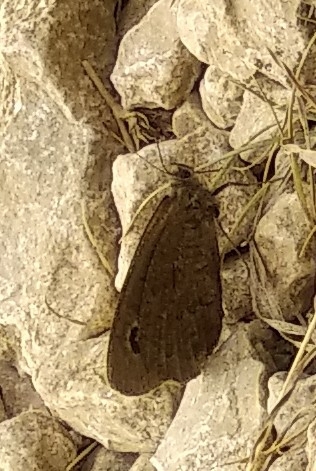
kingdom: Animalia
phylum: Arthropoda
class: Insecta
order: Lepidoptera
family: Nymphalidae
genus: Satyrus
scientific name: Satyrus actaea
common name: Black satyr
